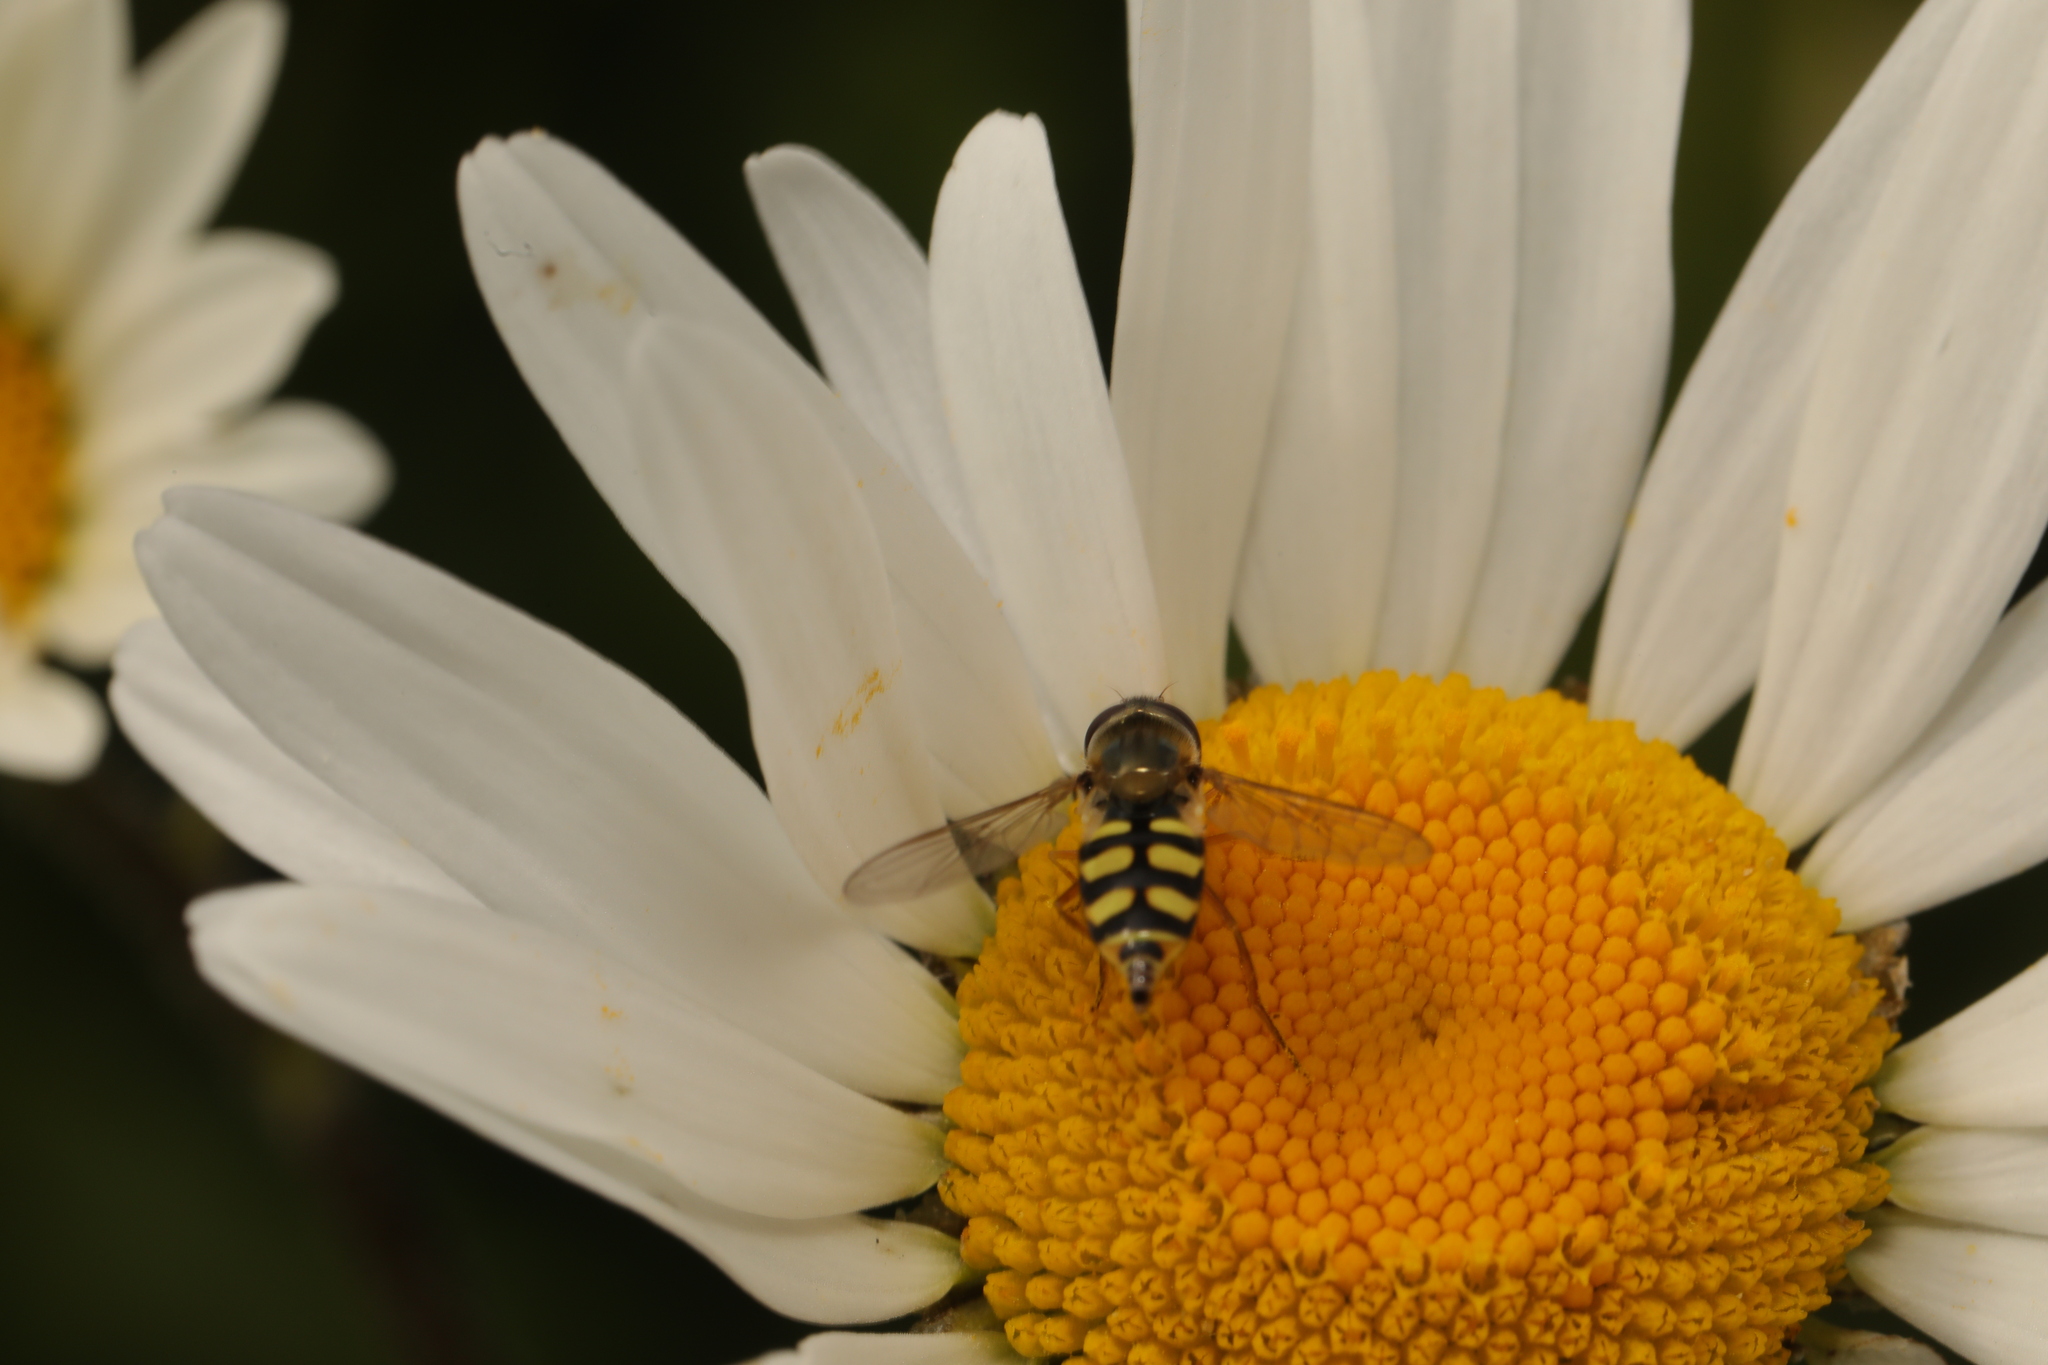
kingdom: Animalia
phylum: Arthropoda
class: Insecta
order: Diptera
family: Syrphidae
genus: Eupeodes
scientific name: Eupeodes corollae
